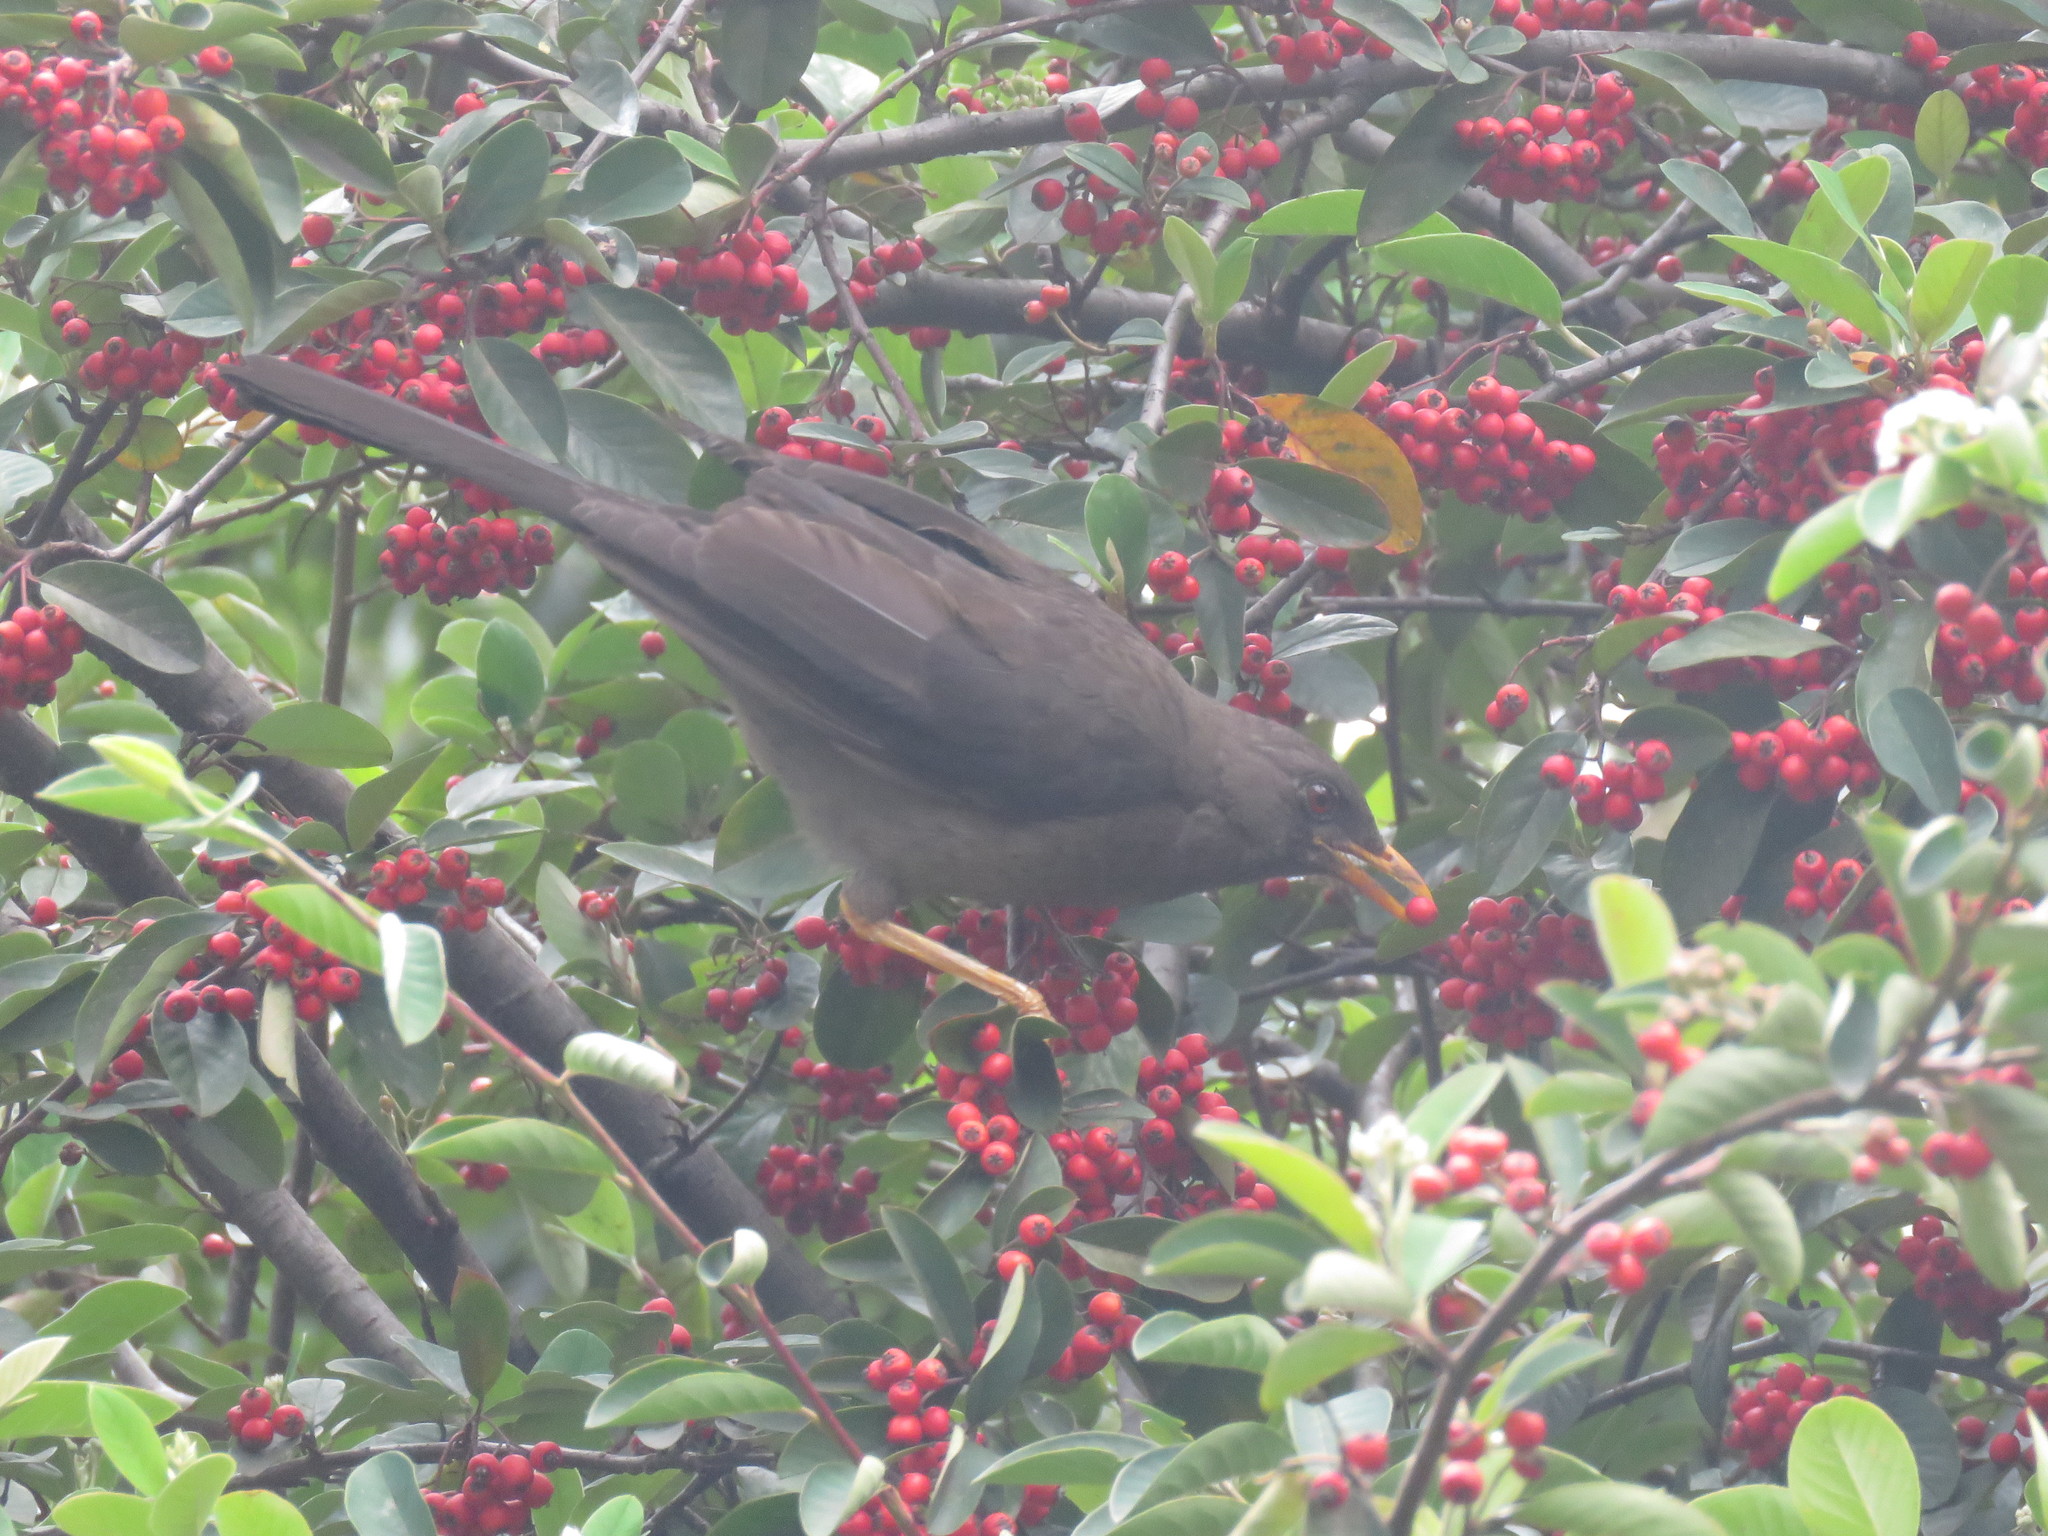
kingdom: Animalia
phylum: Chordata
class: Aves
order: Passeriformes
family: Turdidae
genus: Turdus
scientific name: Turdus fuscater
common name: Great thrush
